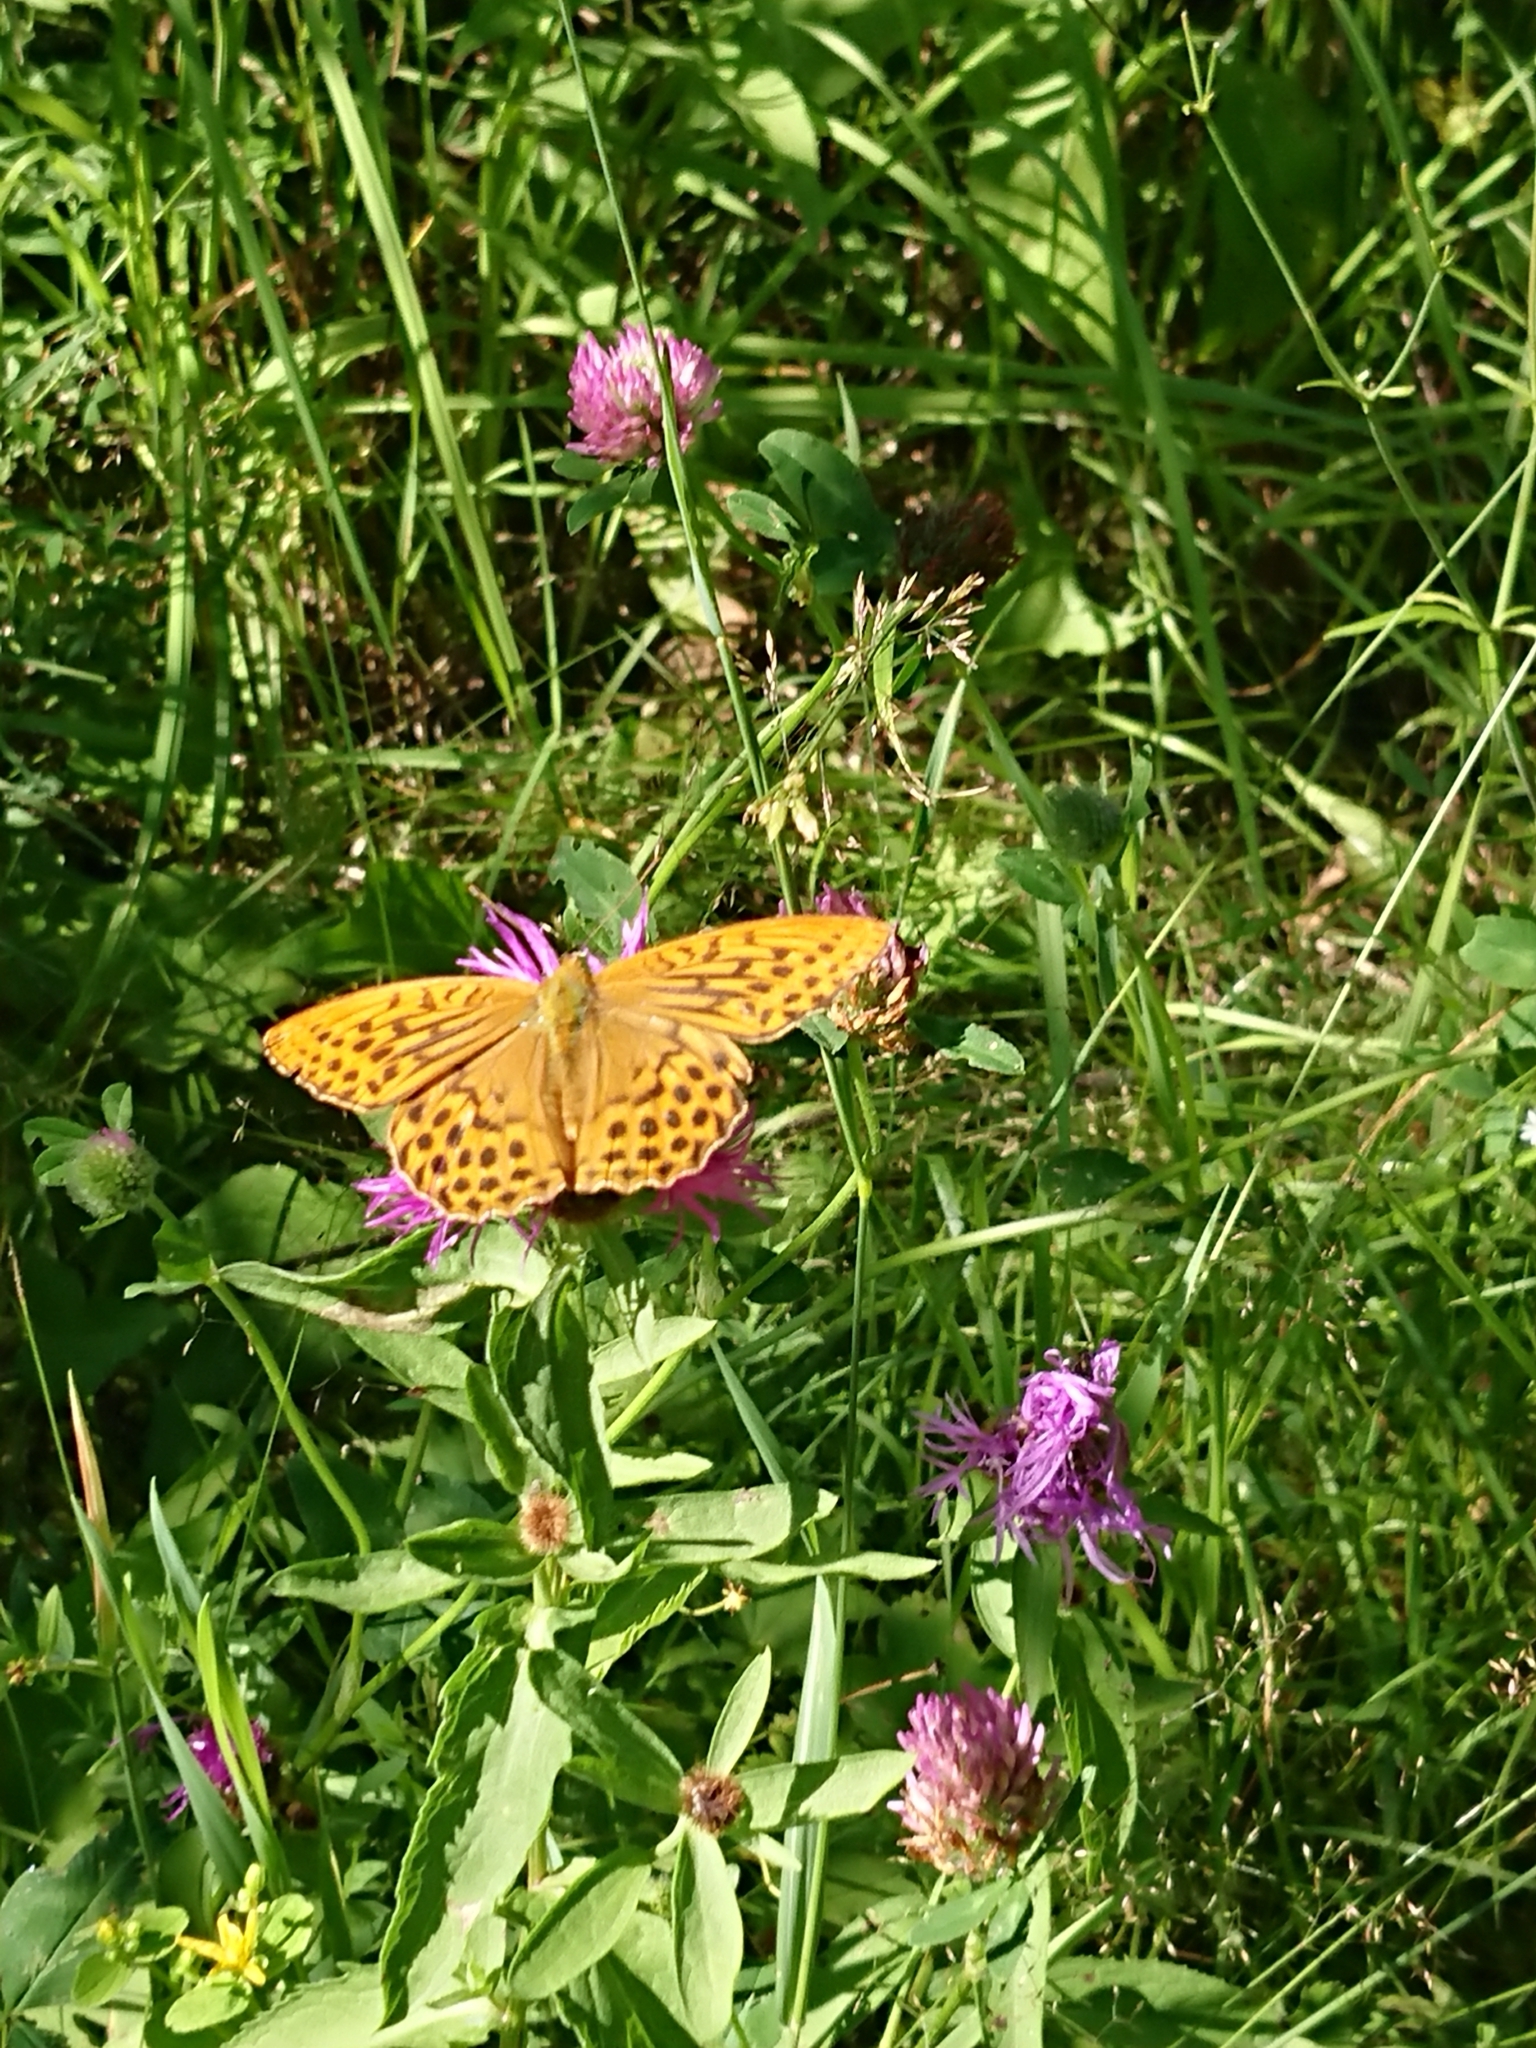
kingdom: Animalia
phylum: Arthropoda
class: Insecta
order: Lepidoptera
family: Nymphalidae
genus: Argynnis
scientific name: Argynnis paphia
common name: Silver-washed fritillary
